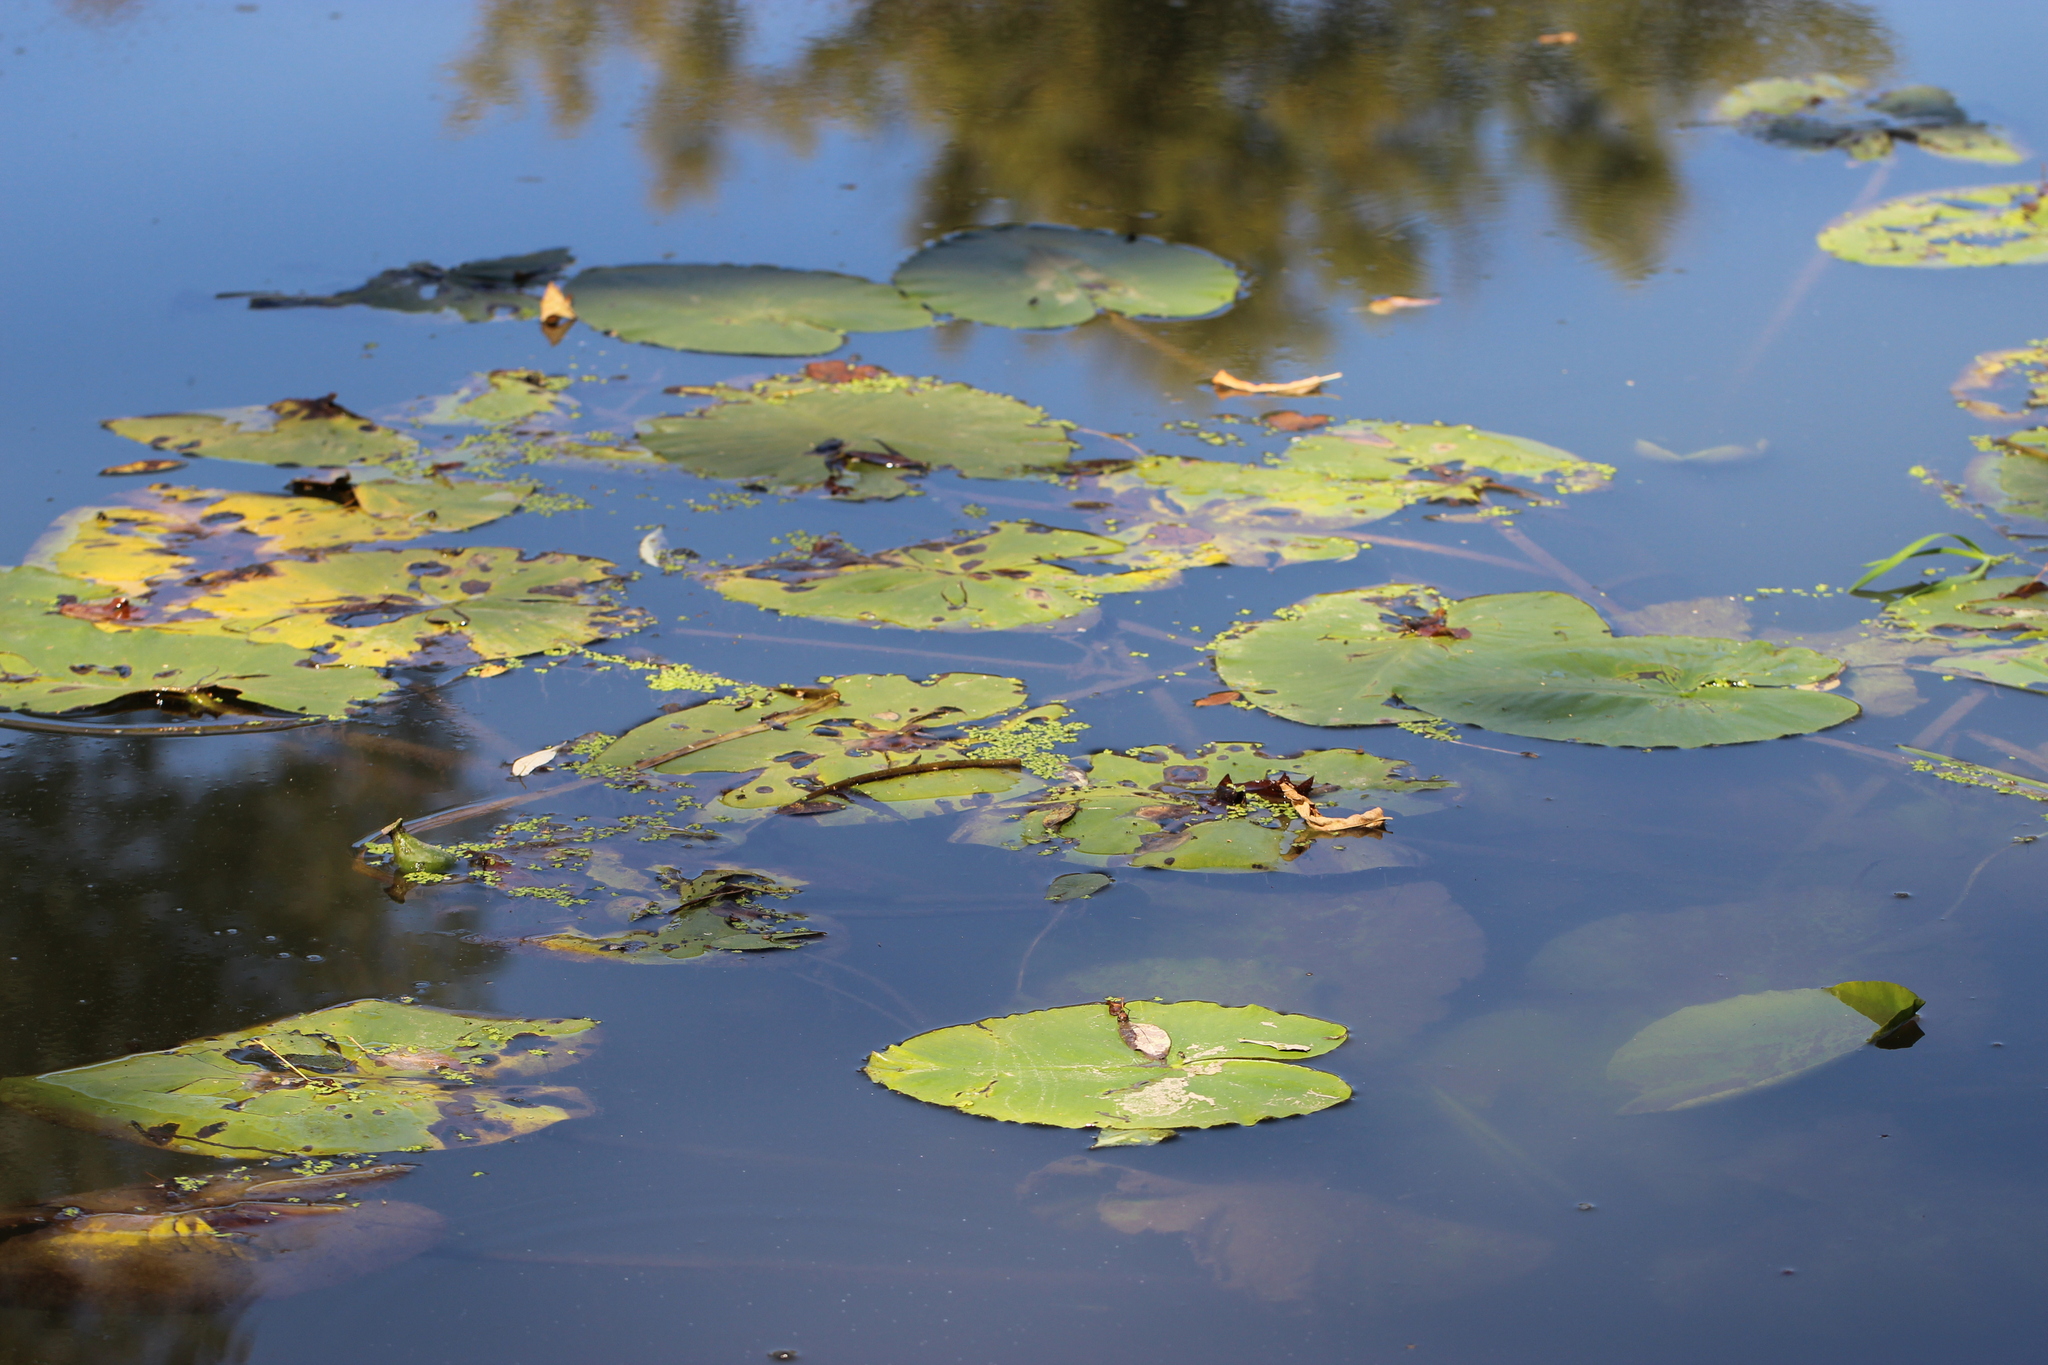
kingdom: Plantae
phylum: Tracheophyta
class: Magnoliopsida
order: Nymphaeales
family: Nymphaeaceae
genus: Nuphar
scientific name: Nuphar lutea
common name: Yellow water-lily
